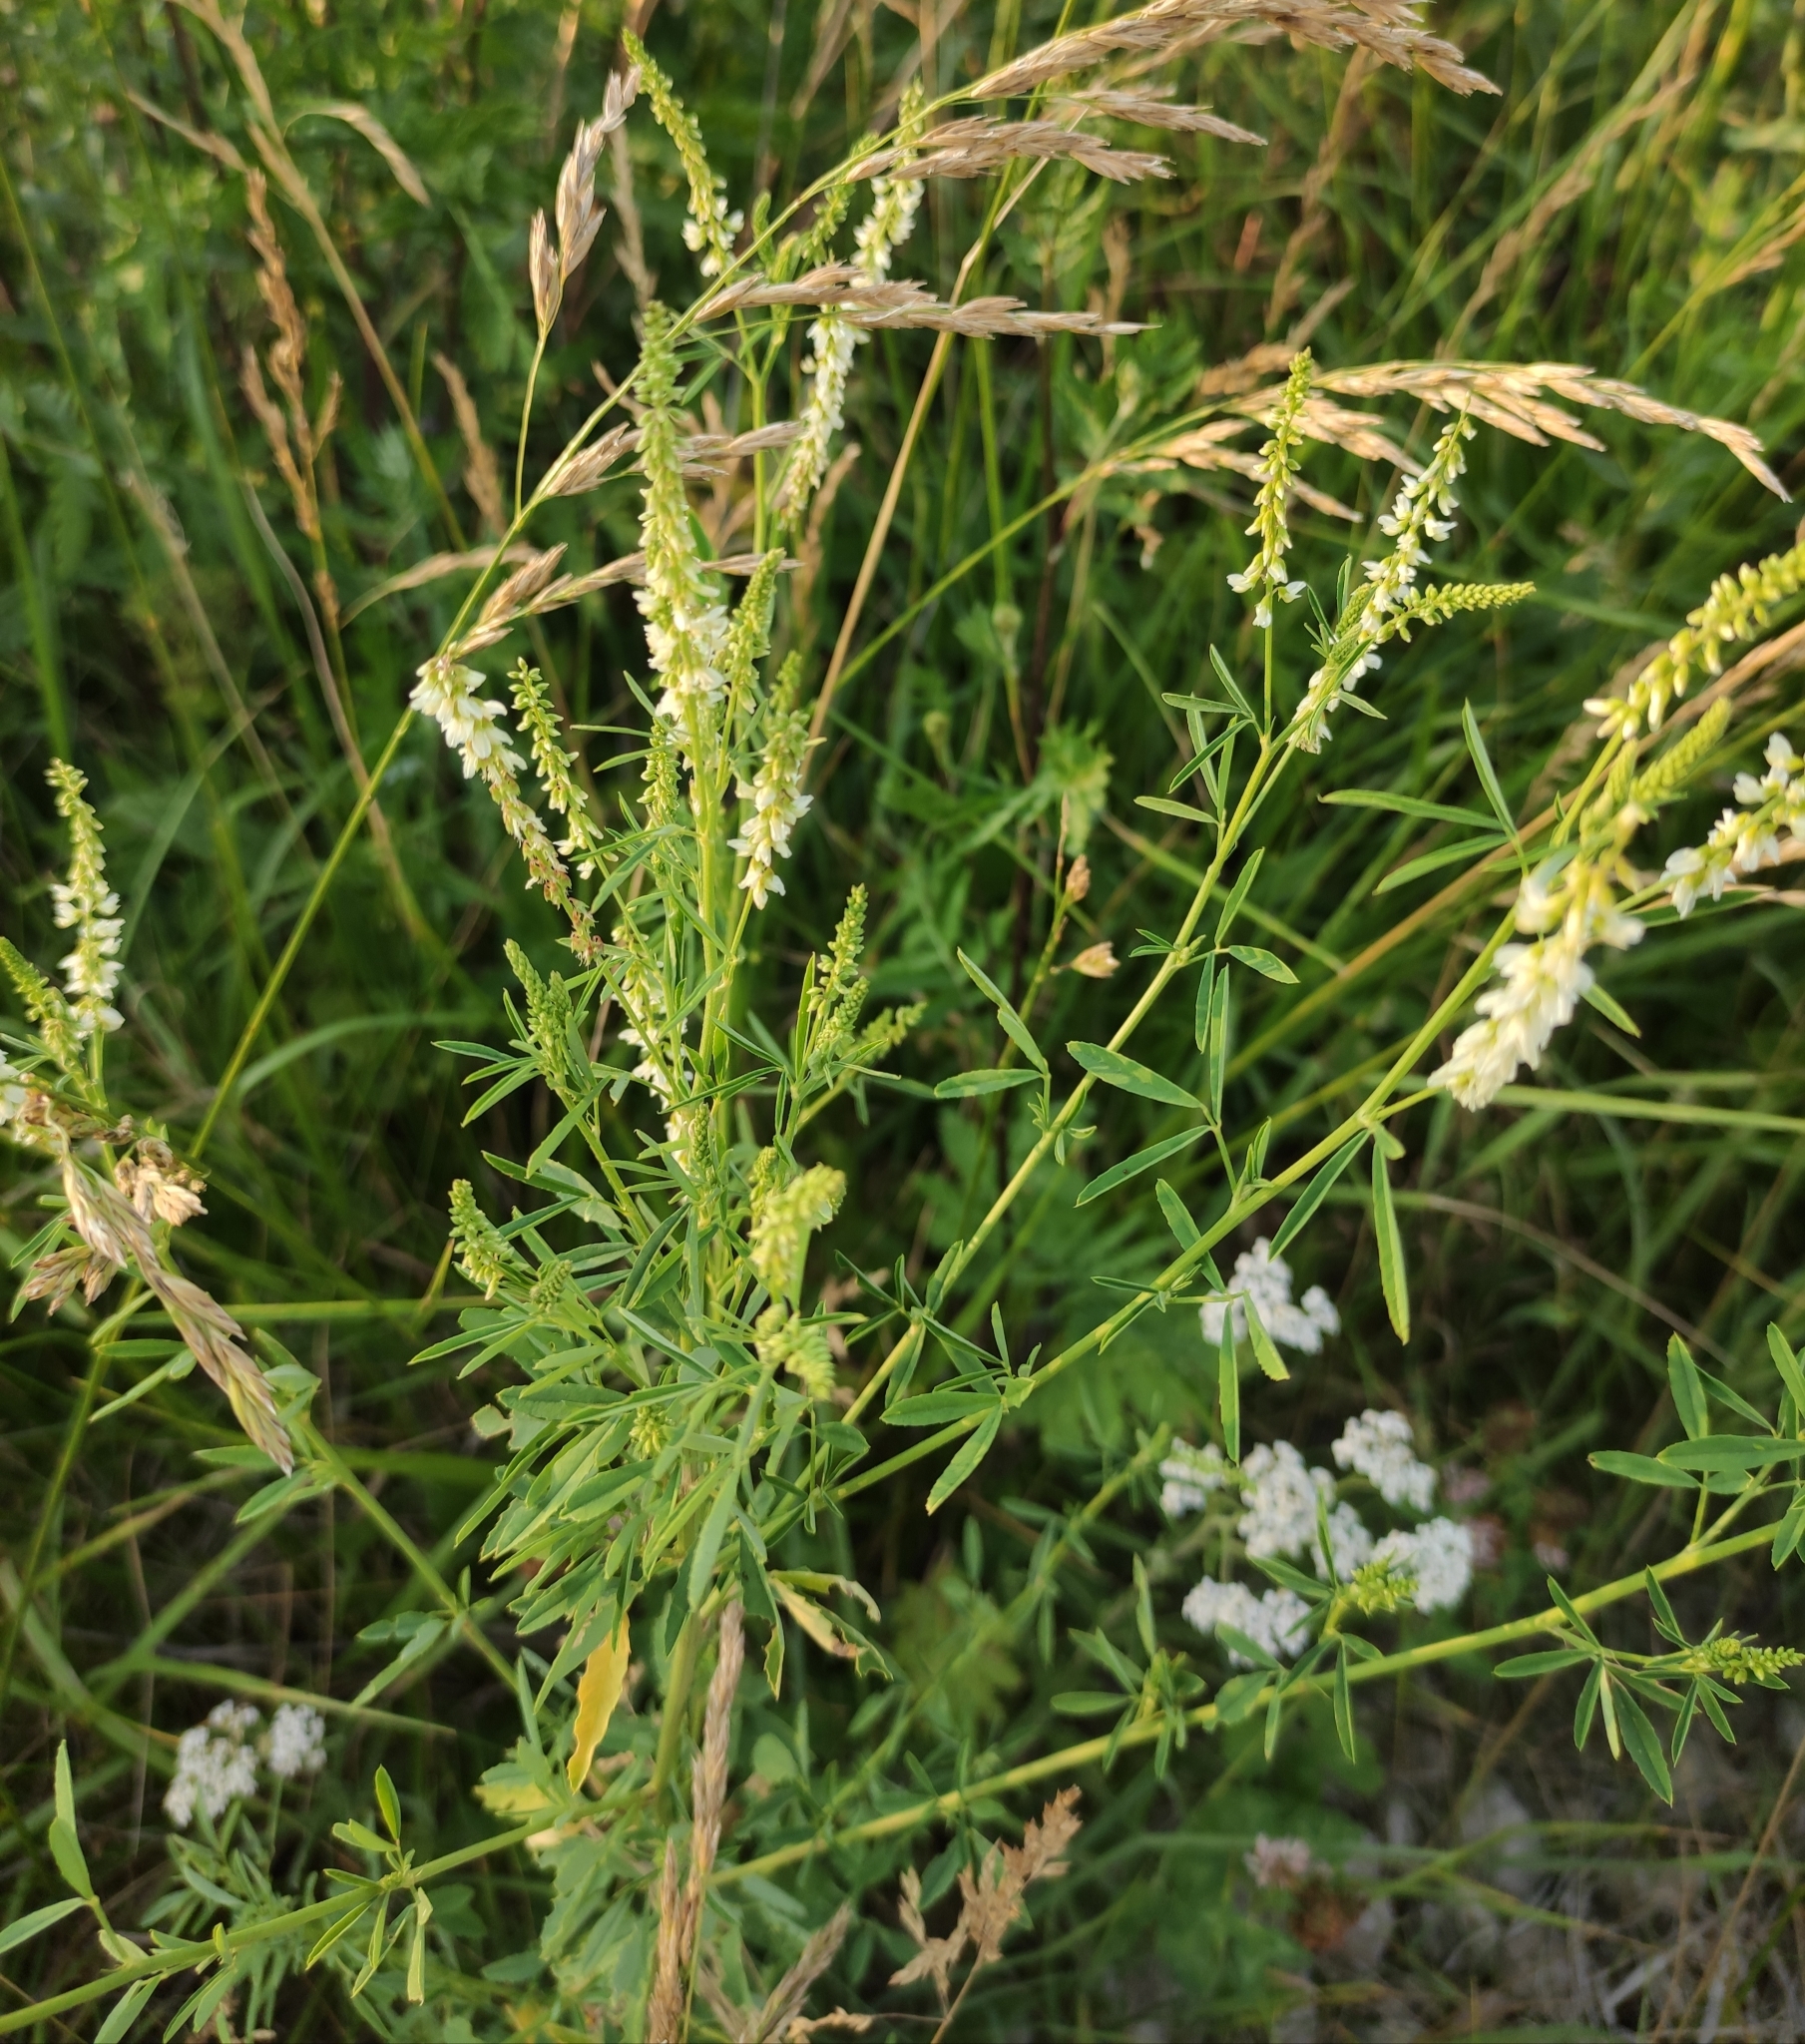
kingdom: Plantae
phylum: Tracheophyta
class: Magnoliopsida
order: Fabales
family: Fabaceae
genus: Melilotus
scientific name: Melilotus albus
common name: White melilot
